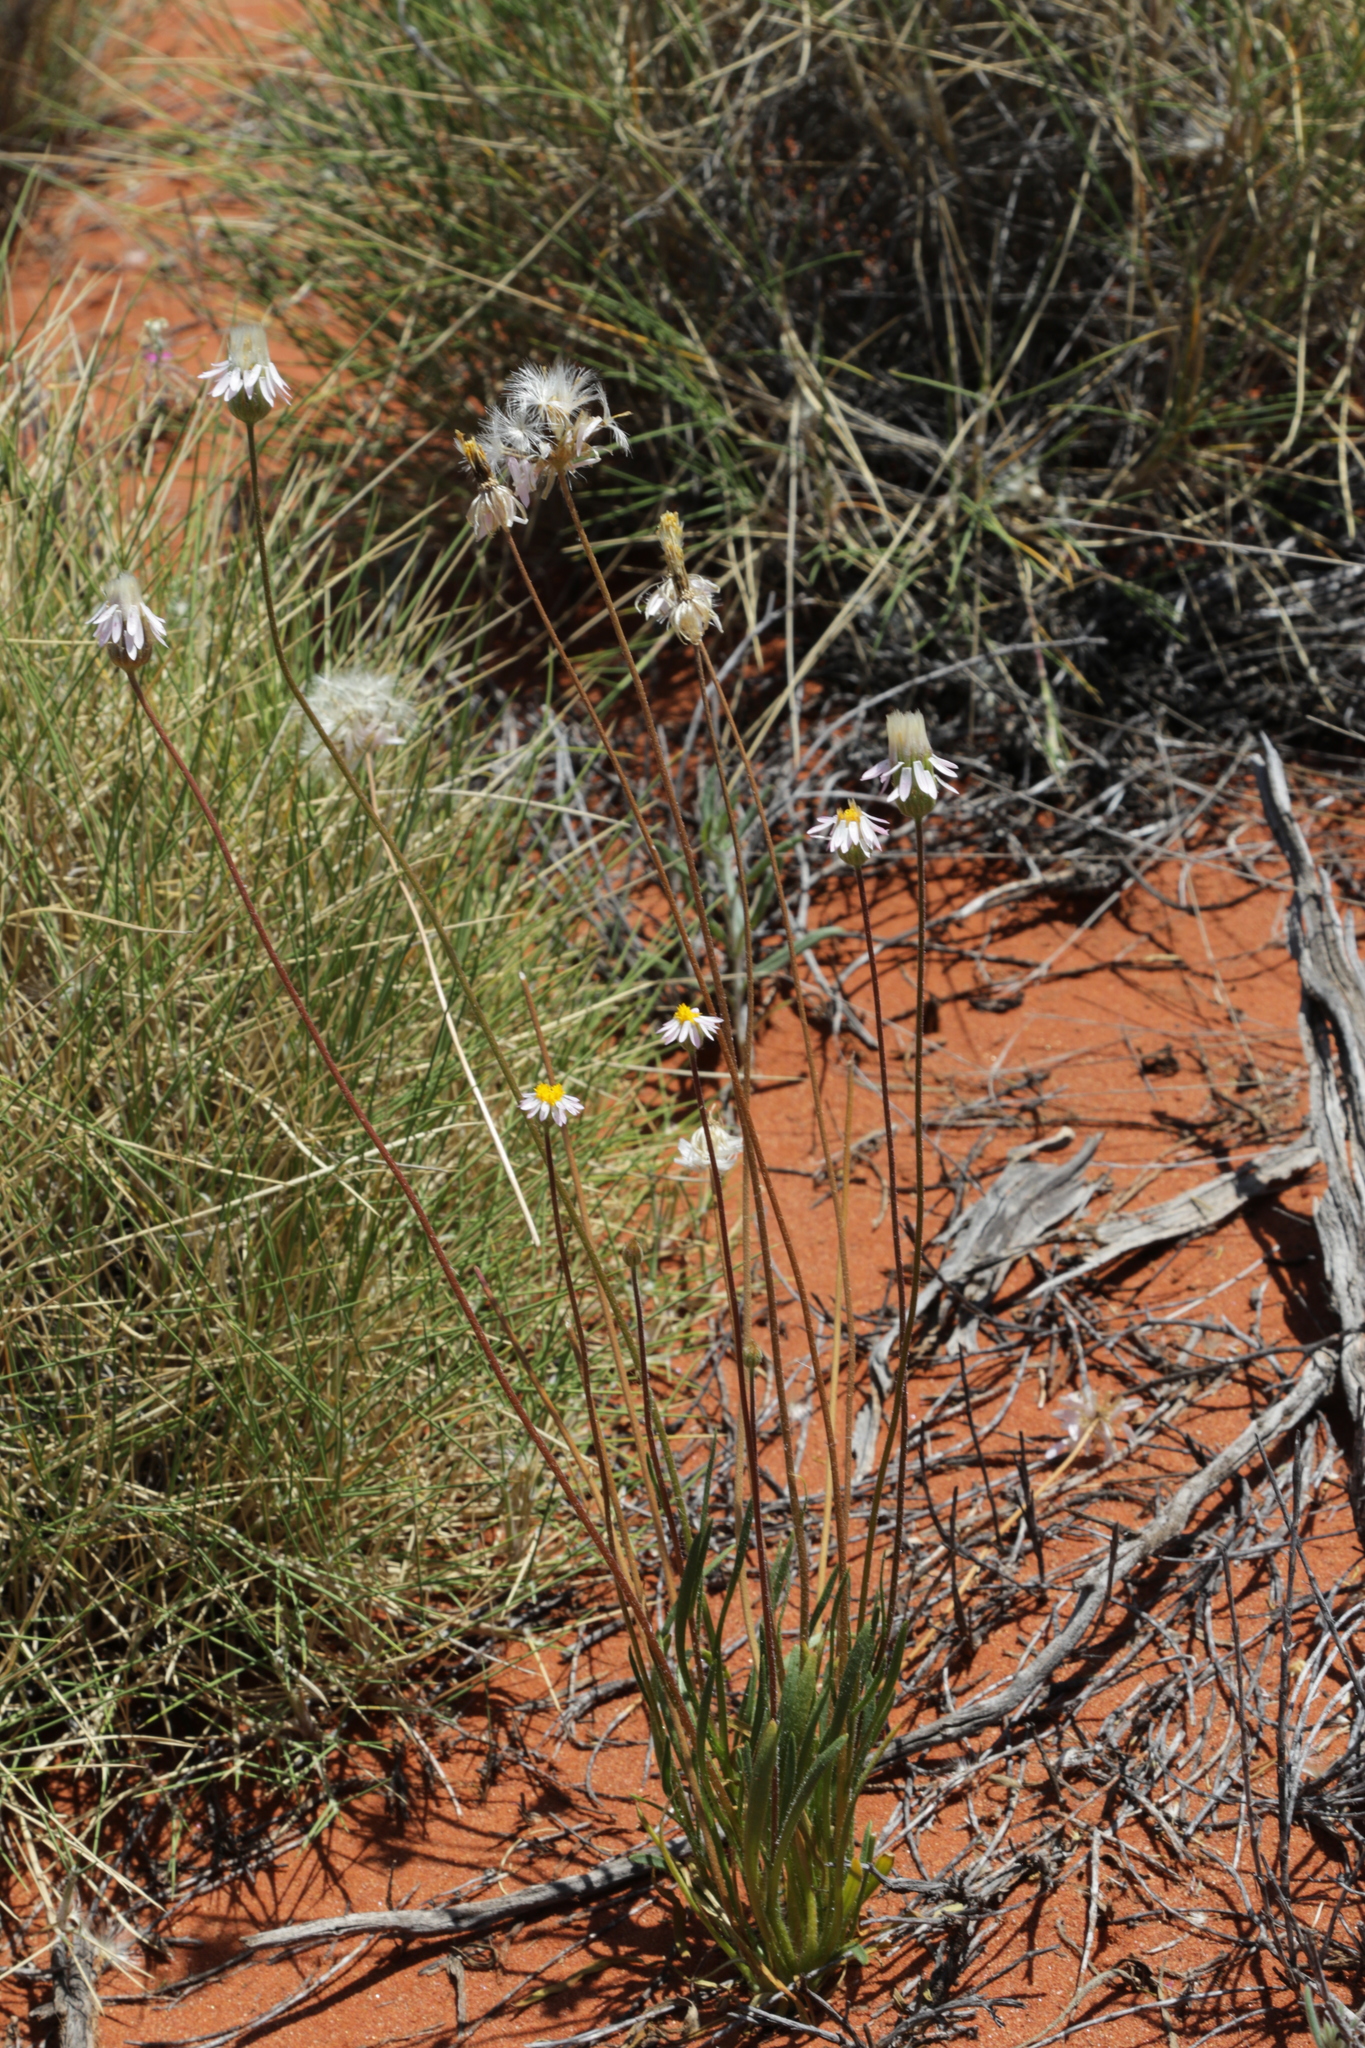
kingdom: Plantae
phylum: Tracheophyta
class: Magnoliopsida
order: Asterales
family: Asteraceae
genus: Lawrencella
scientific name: Lawrencella davenportii
